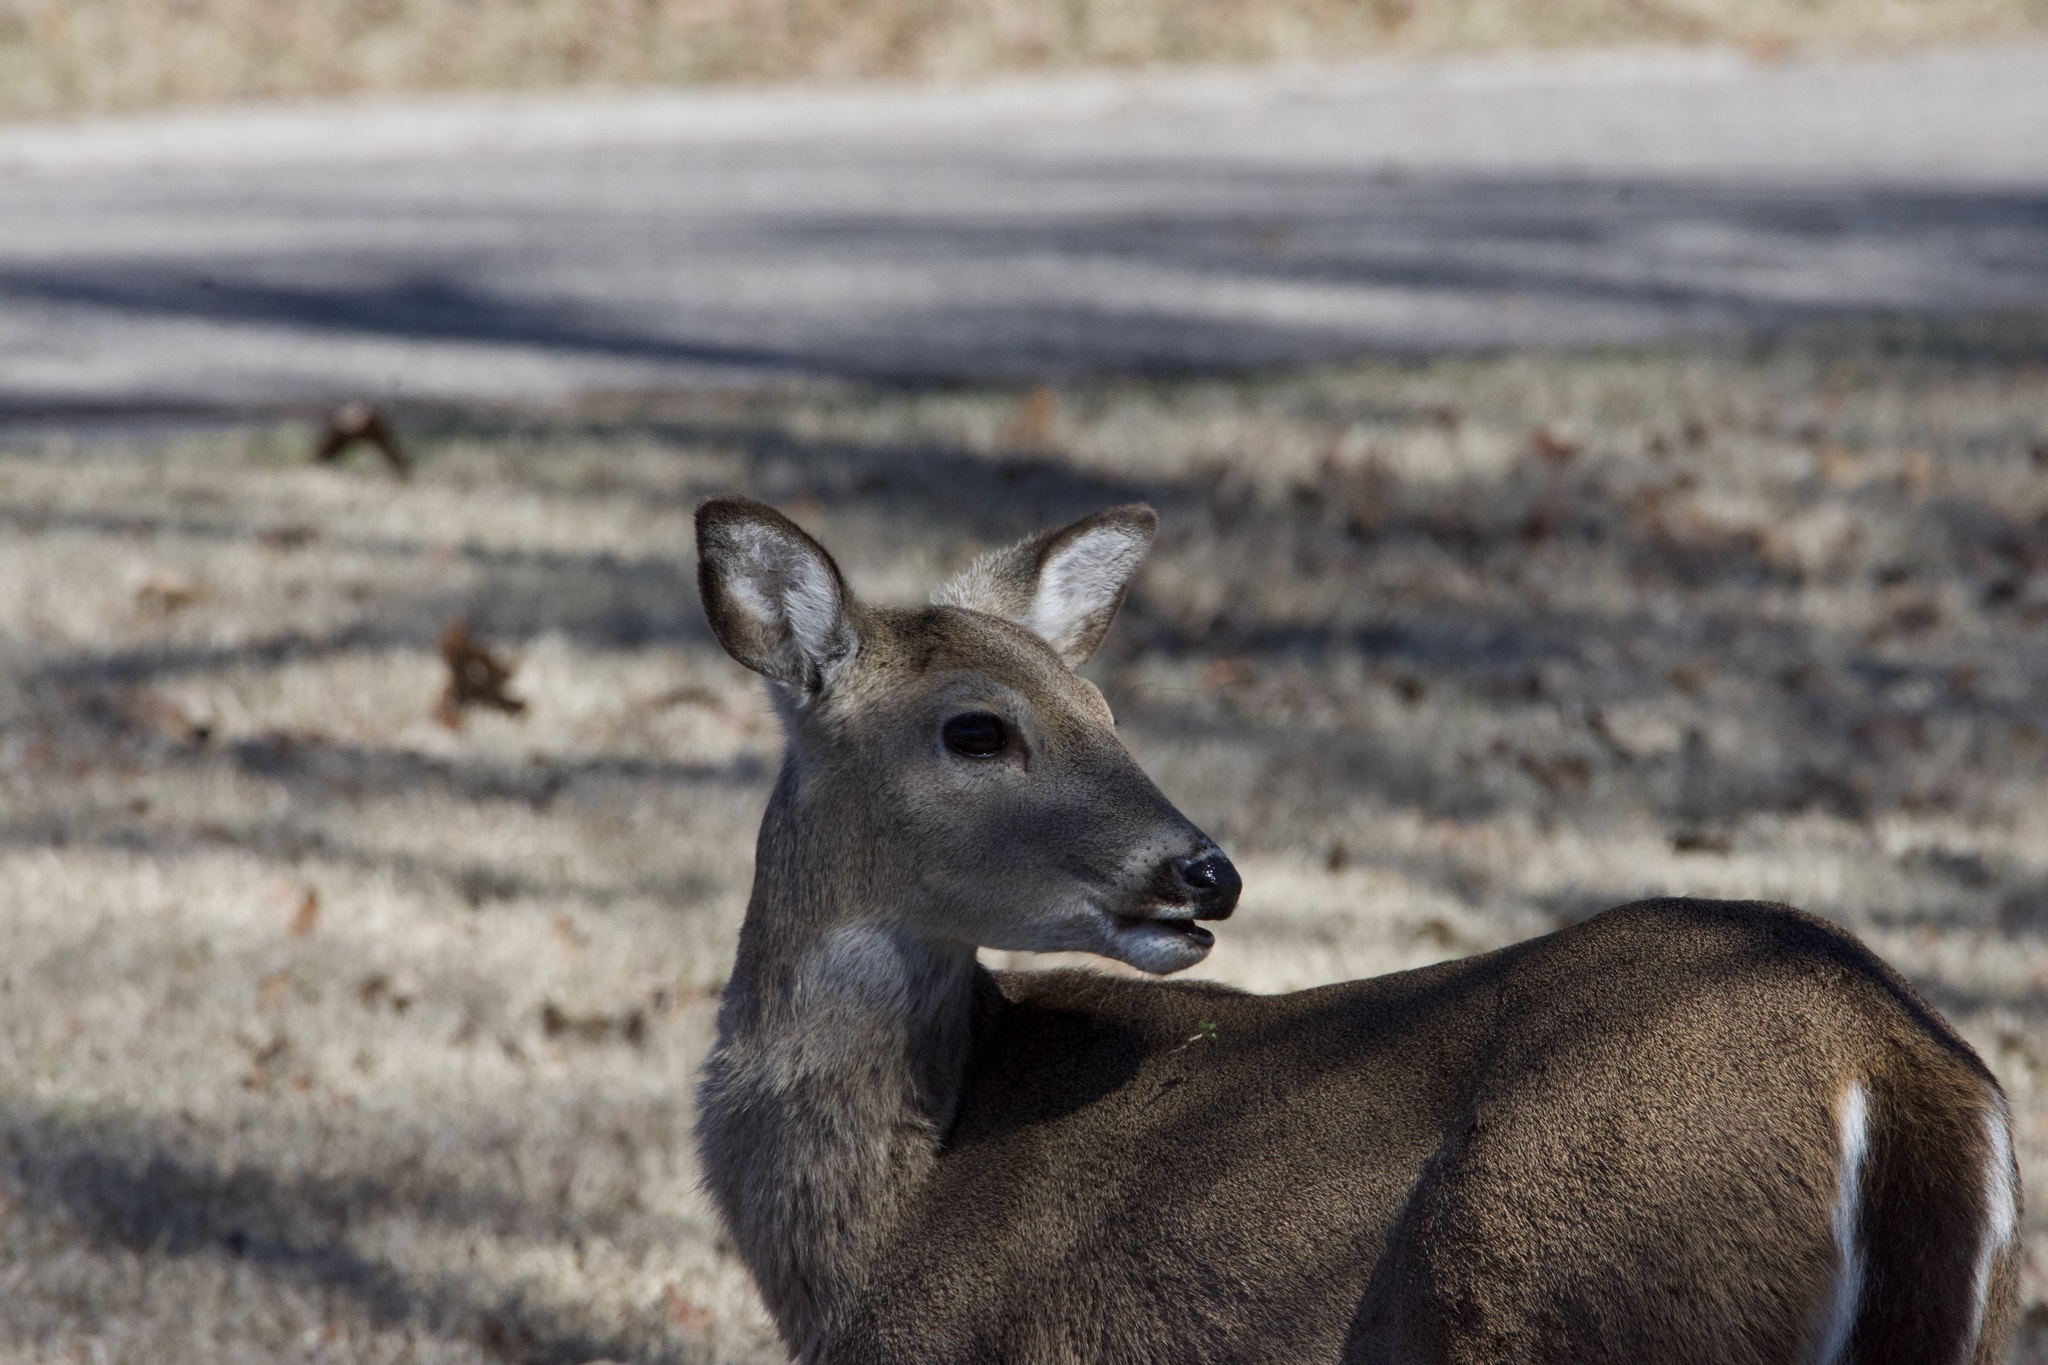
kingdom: Animalia
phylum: Chordata
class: Mammalia
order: Artiodactyla
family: Cervidae
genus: Odocoileus
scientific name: Odocoileus virginianus
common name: White-tailed deer
